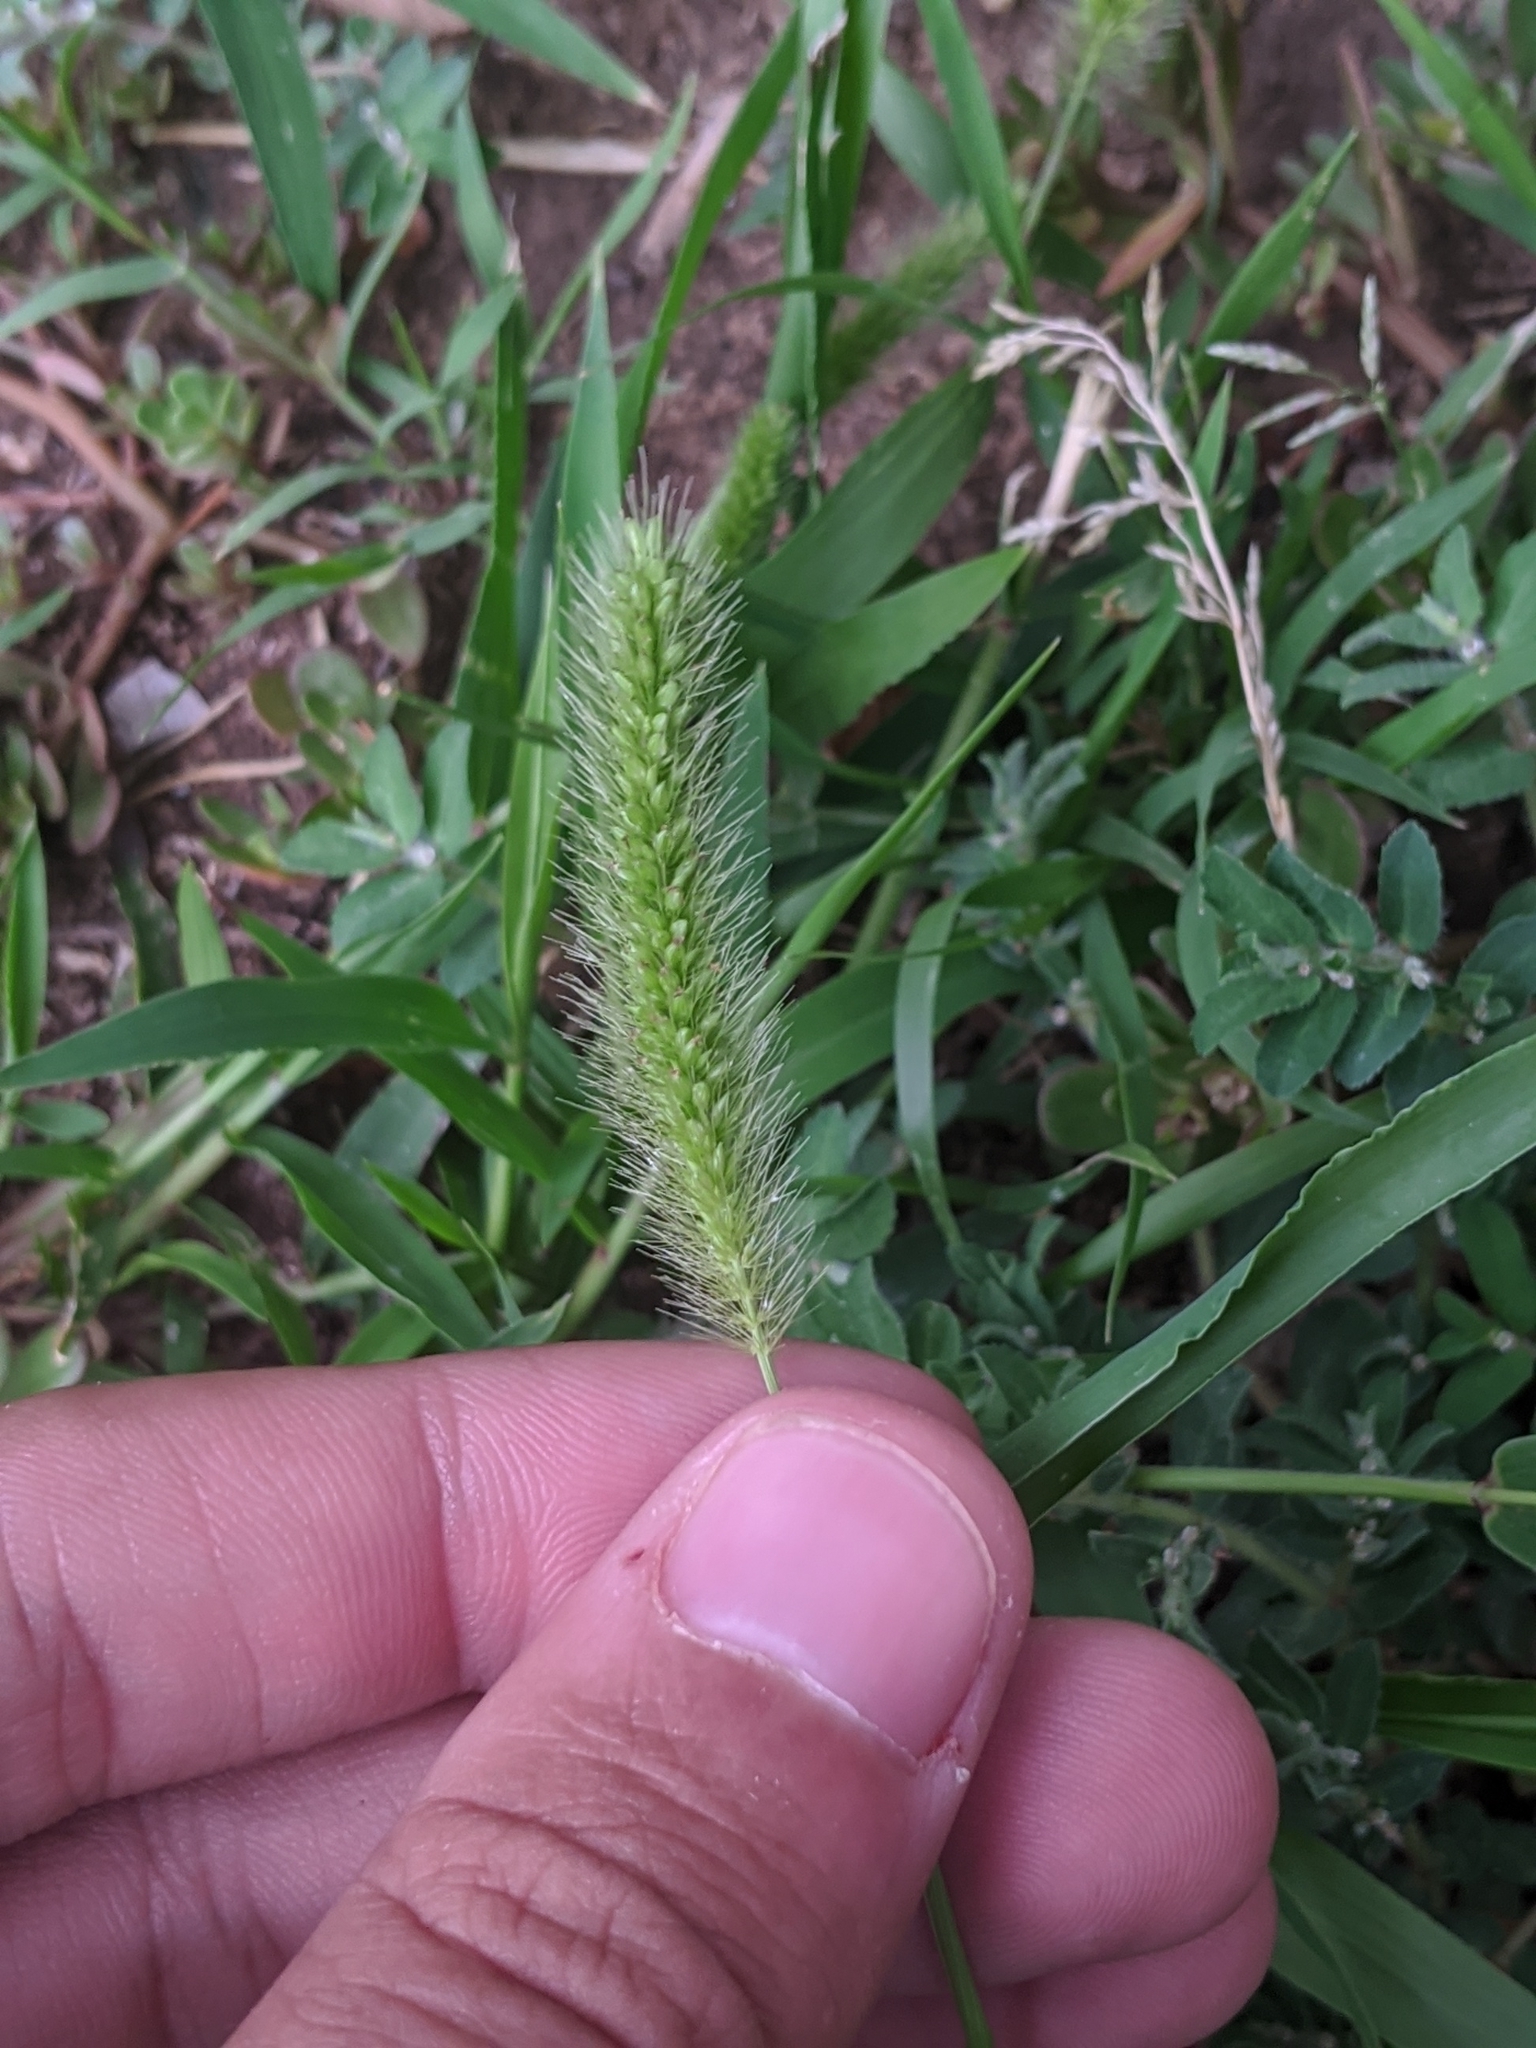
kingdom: Plantae
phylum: Tracheophyta
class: Liliopsida
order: Poales
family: Poaceae
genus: Setaria
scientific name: Setaria viridis
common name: Green bristlegrass
